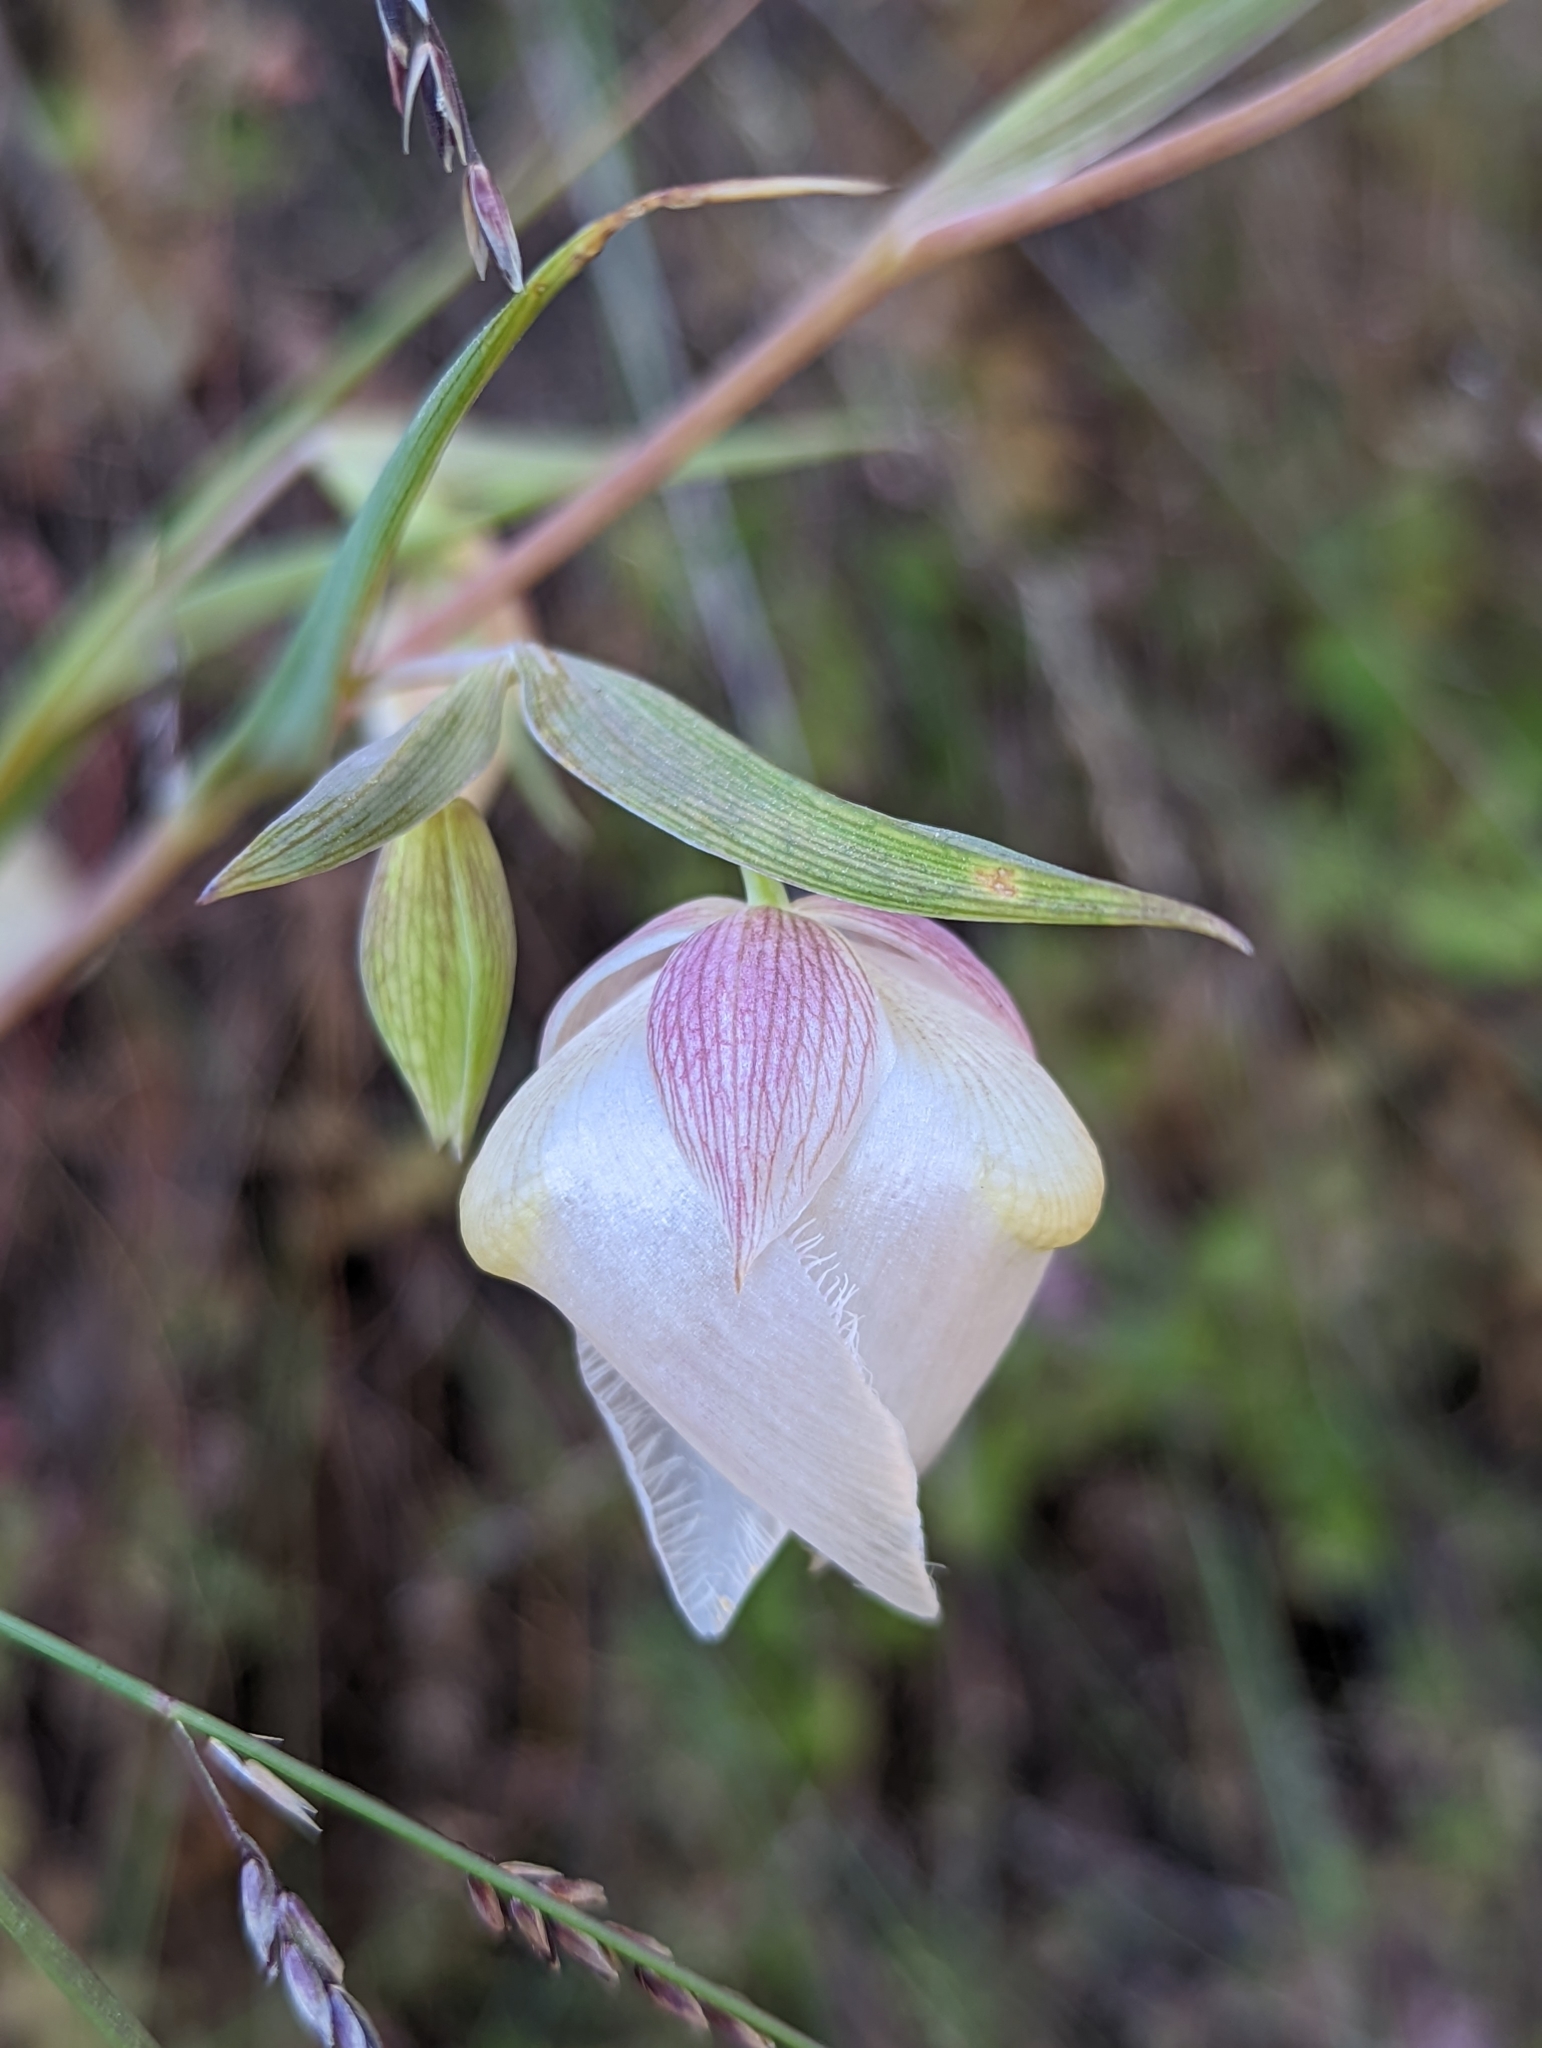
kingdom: Plantae
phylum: Tracheophyta
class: Liliopsida
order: Liliales
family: Liliaceae
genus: Calochortus
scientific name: Calochortus albus
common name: Fairy-lantern
